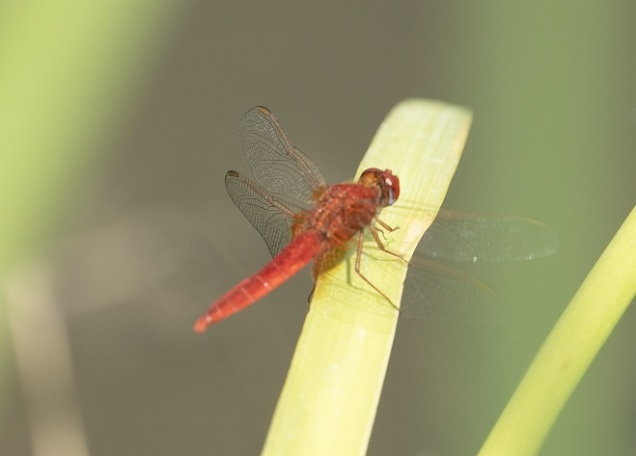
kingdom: Animalia
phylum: Arthropoda
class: Insecta
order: Odonata
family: Libellulidae
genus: Crocothemis
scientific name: Crocothemis erythraea
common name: Scarlet dragonfly
